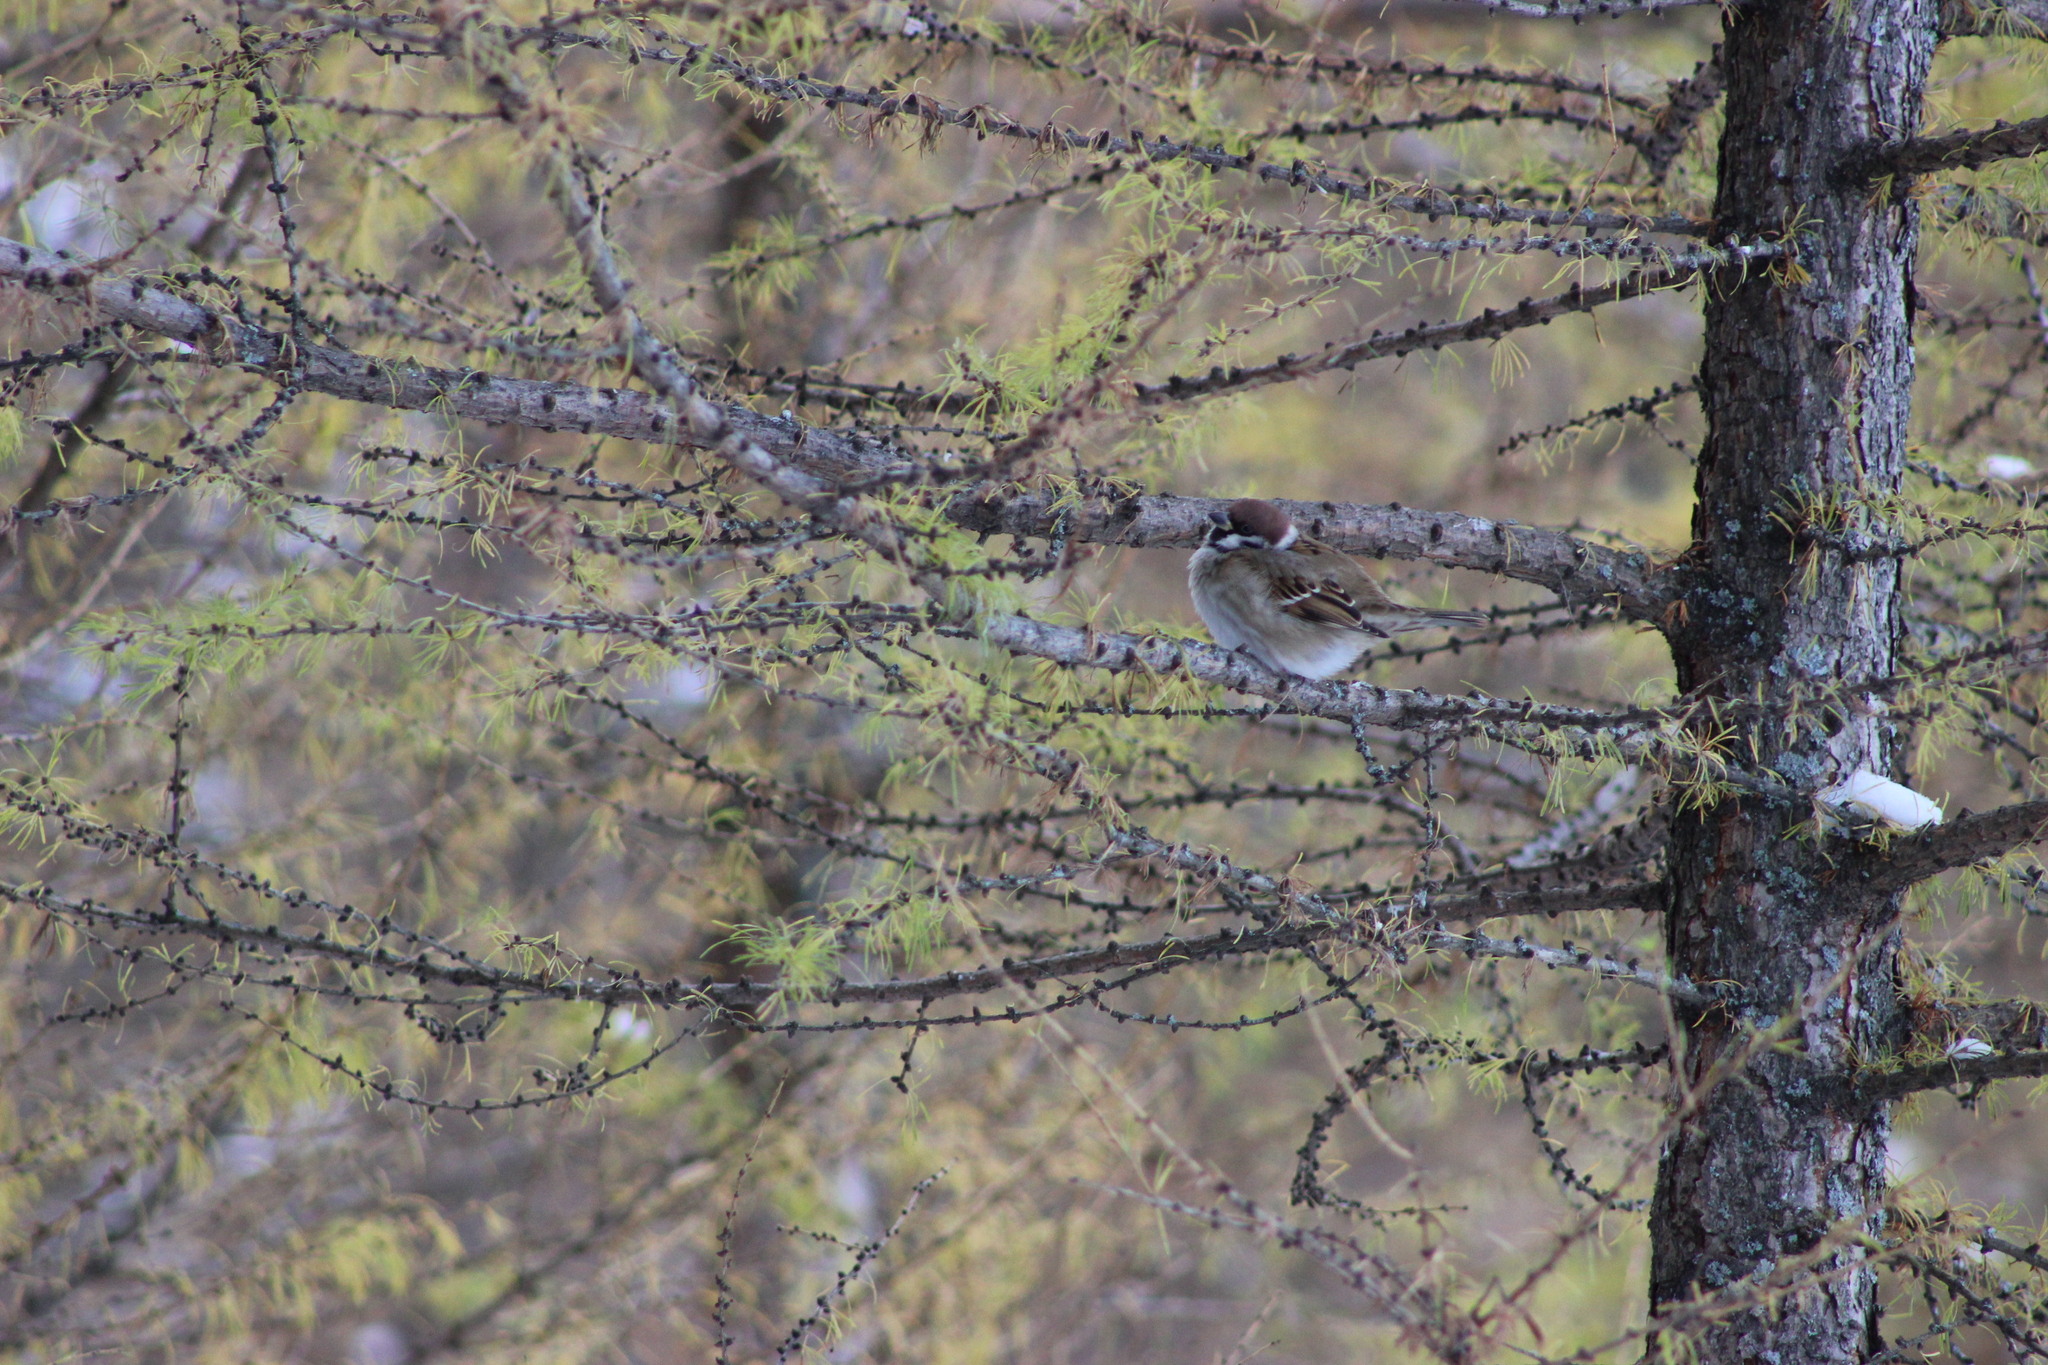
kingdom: Animalia
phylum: Chordata
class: Aves
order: Passeriformes
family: Passeridae
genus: Passer
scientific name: Passer montanus
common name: Eurasian tree sparrow
